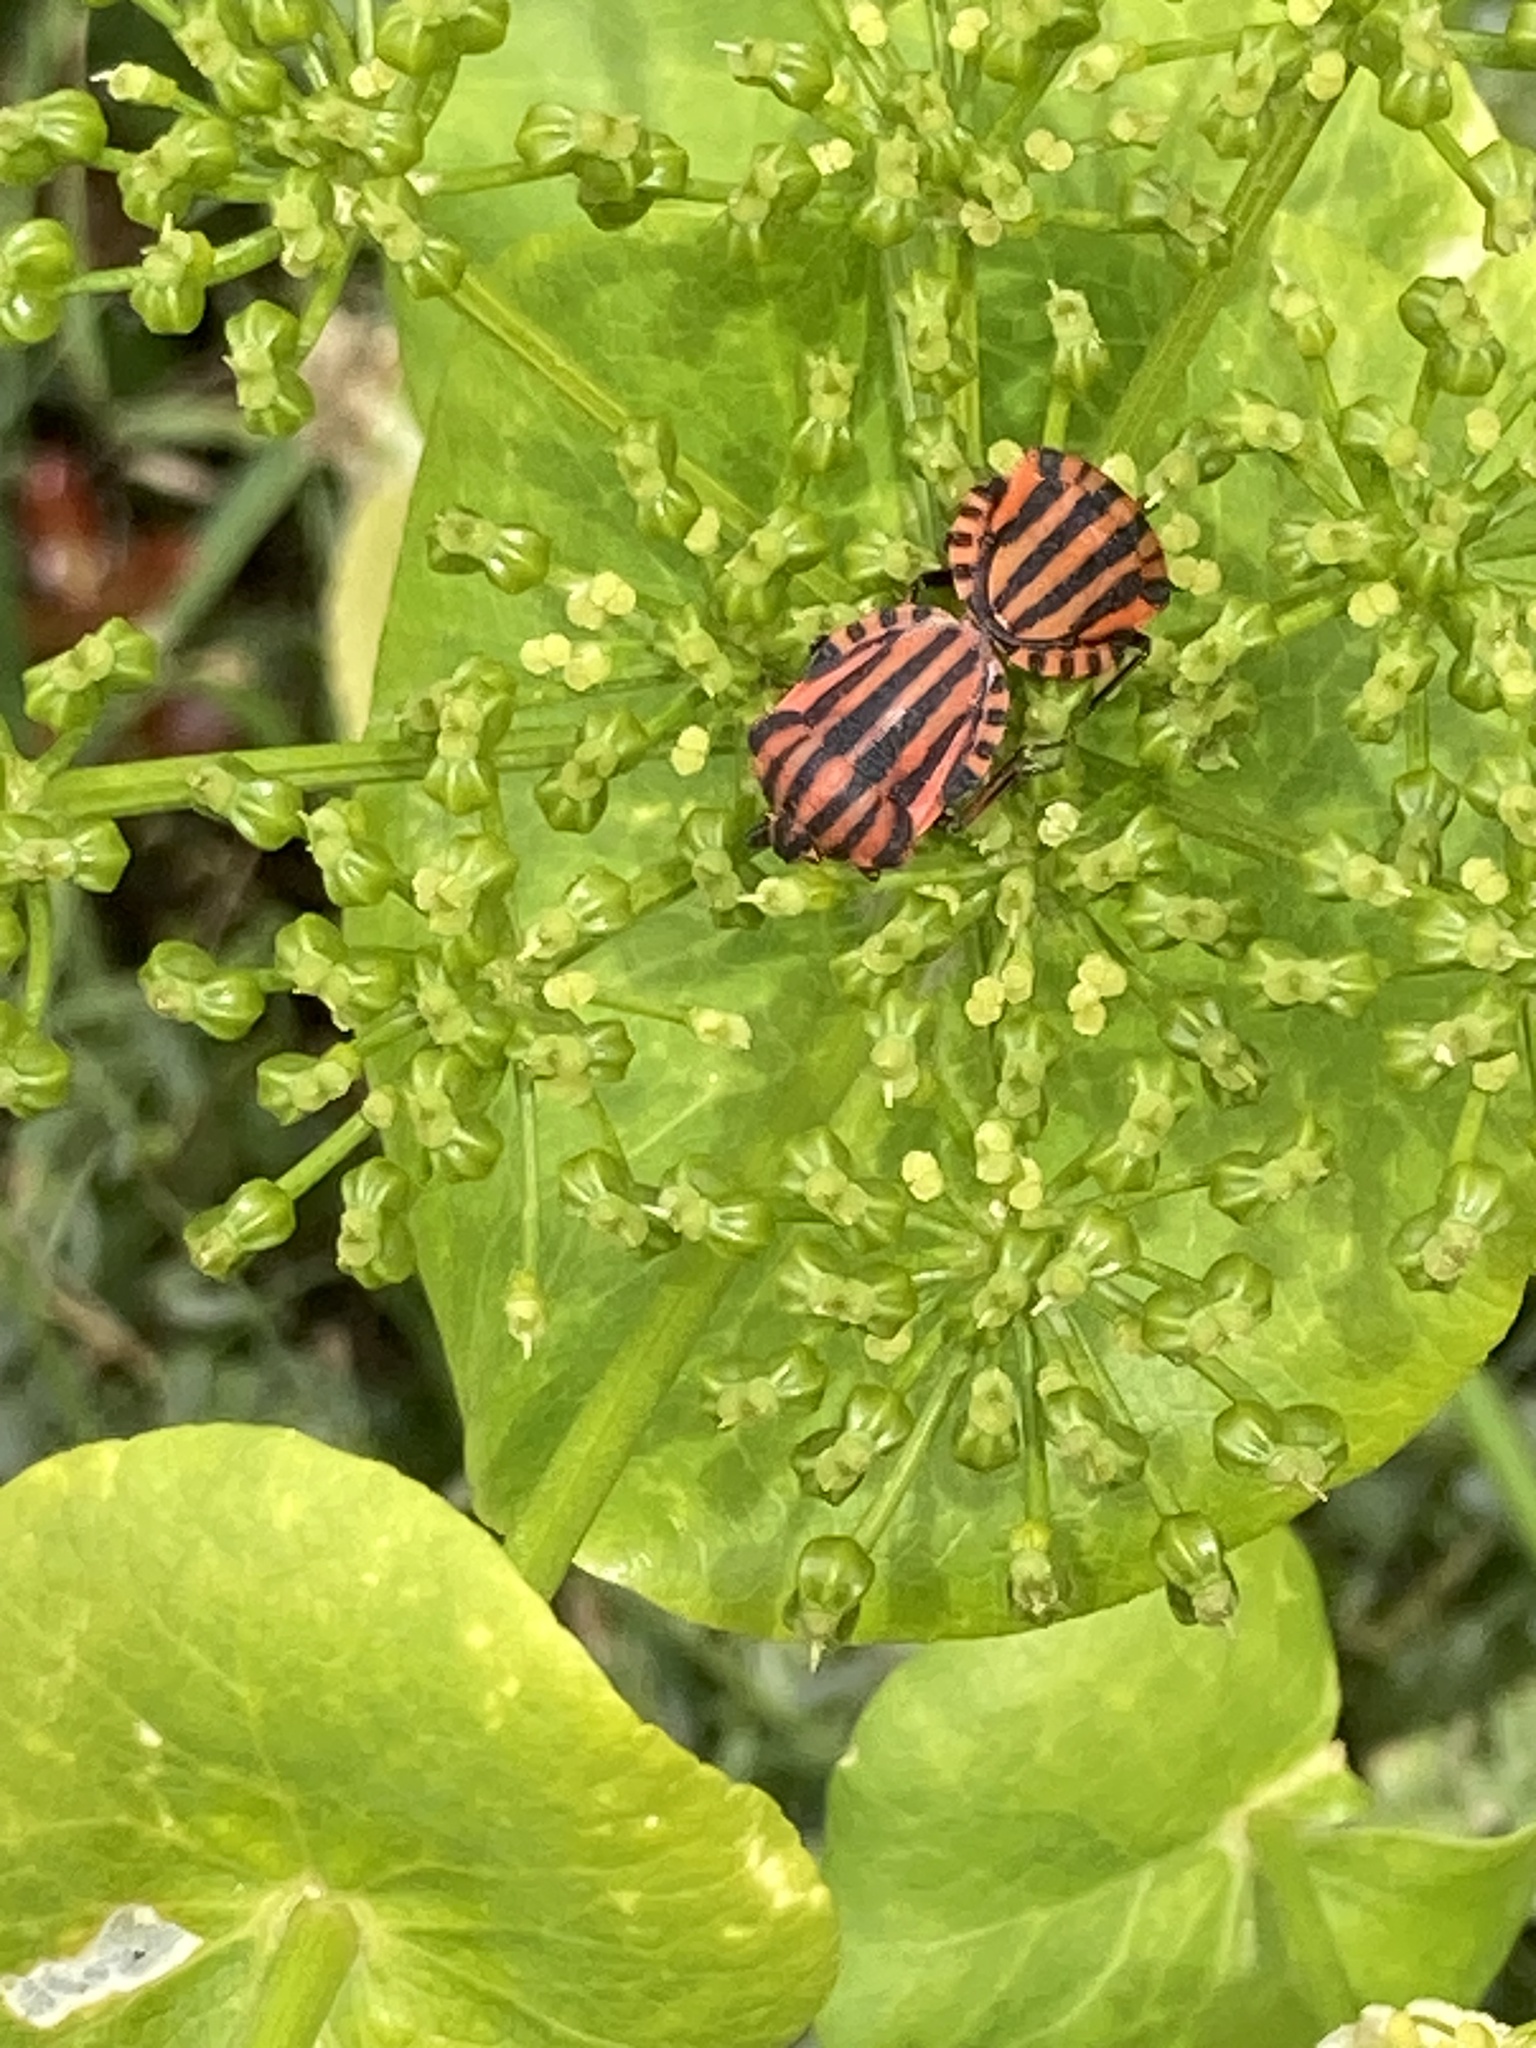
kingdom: Animalia
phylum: Arthropoda
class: Insecta
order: Hemiptera
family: Pentatomidae
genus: Graphosoma
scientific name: Graphosoma italicum
